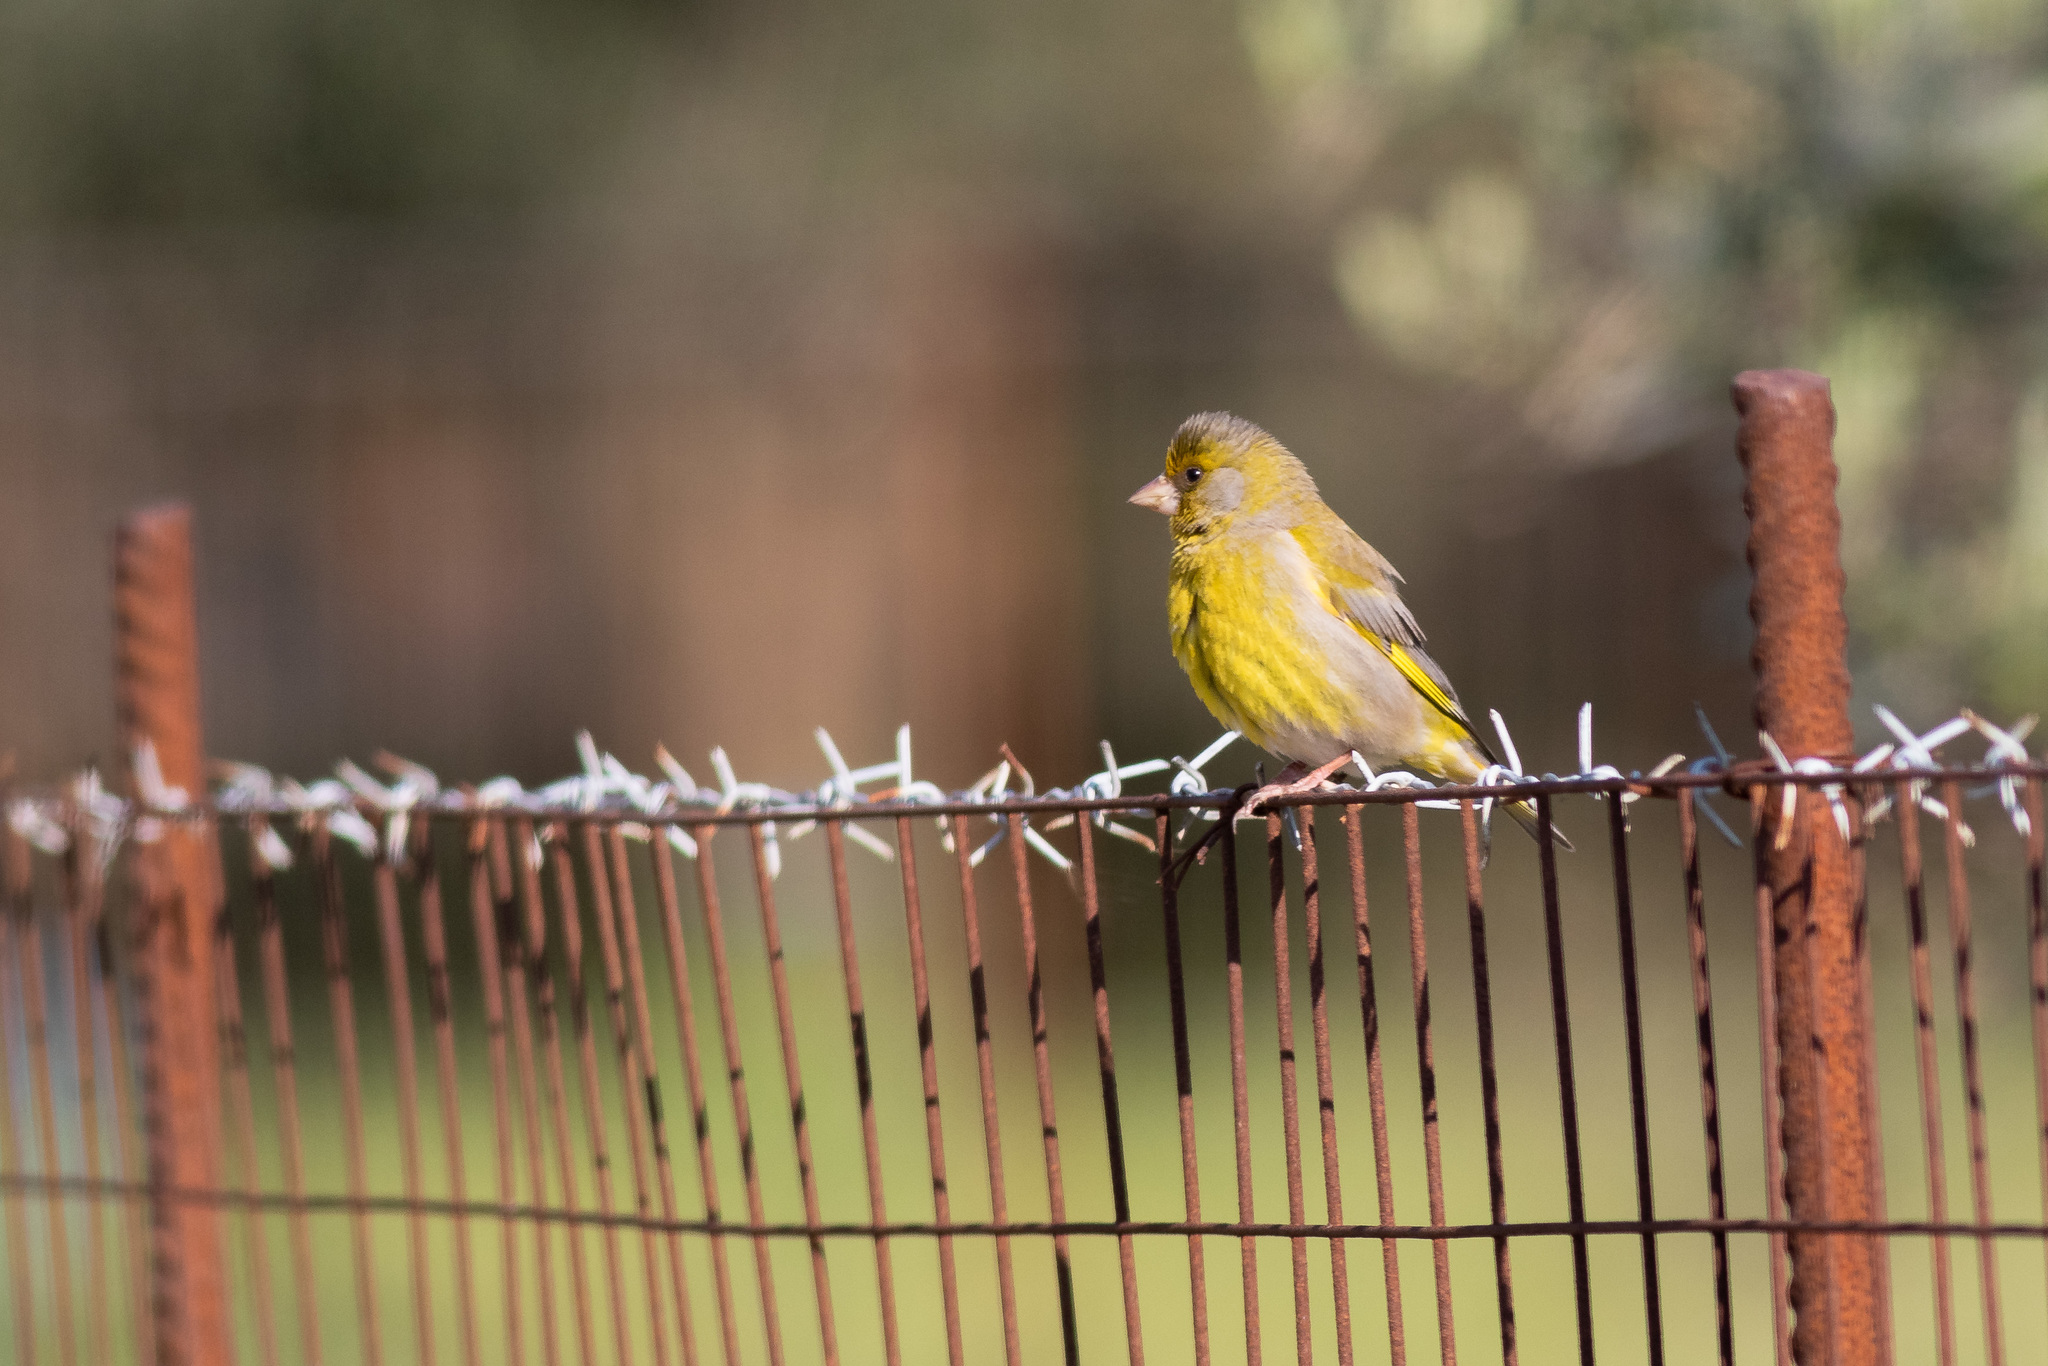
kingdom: Plantae
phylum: Tracheophyta
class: Liliopsida
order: Poales
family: Poaceae
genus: Chloris
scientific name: Chloris chloris
